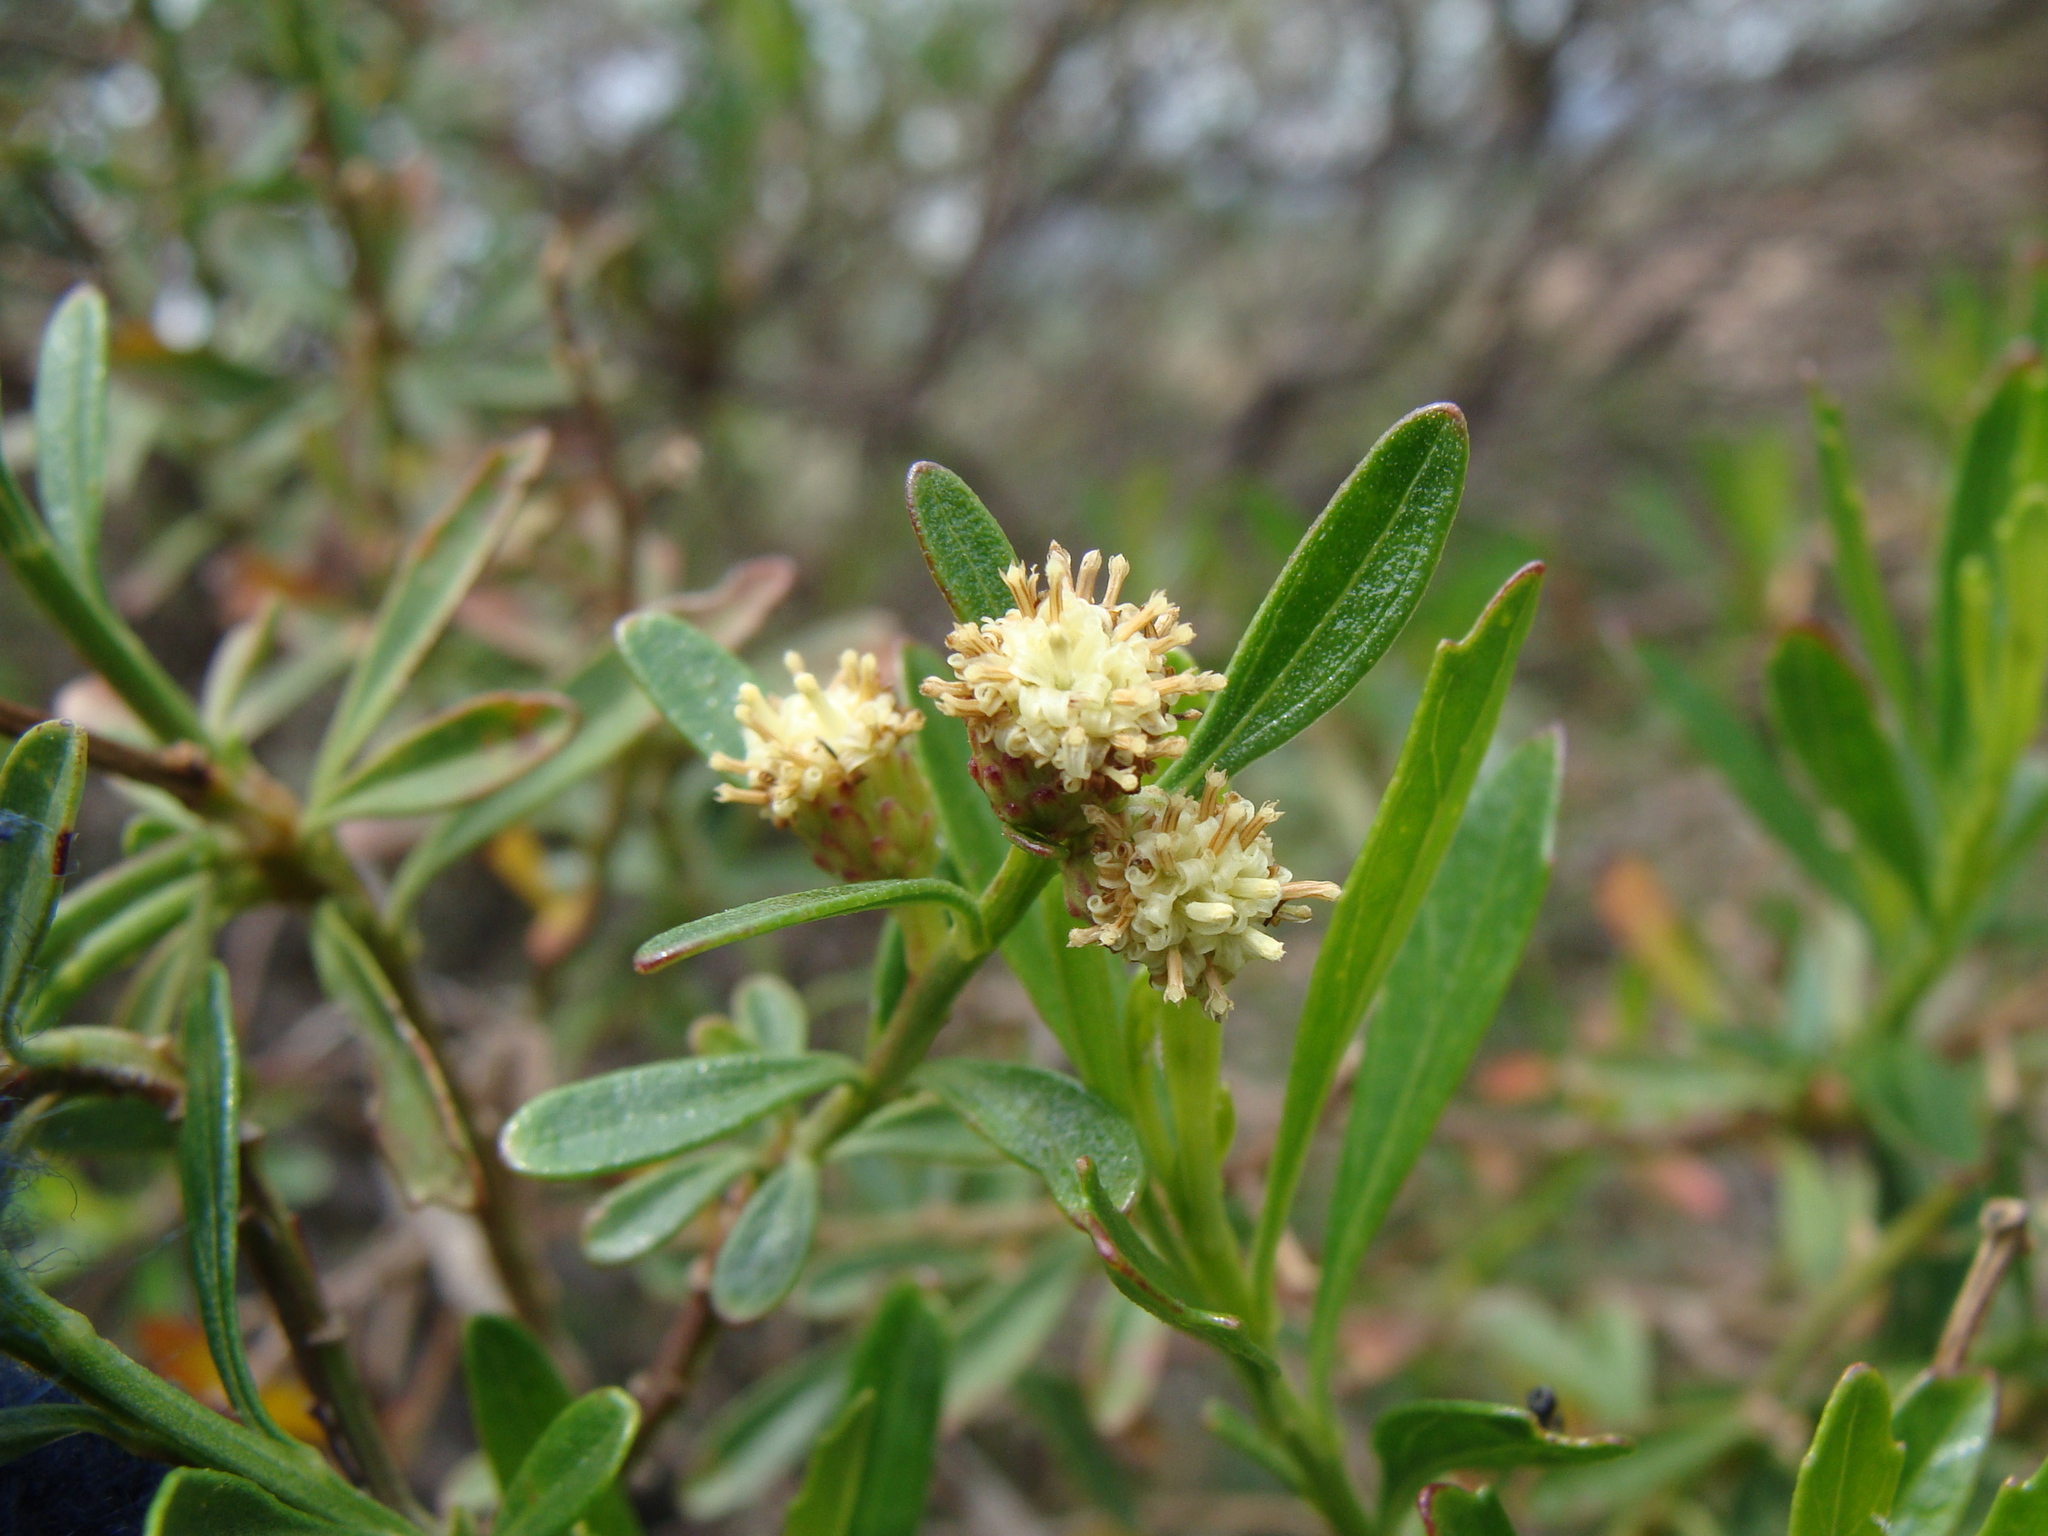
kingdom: Plantae
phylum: Tracheophyta
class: Magnoliopsida
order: Asterales
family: Asteraceae
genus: Baccharis
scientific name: Baccharis heterophylla
